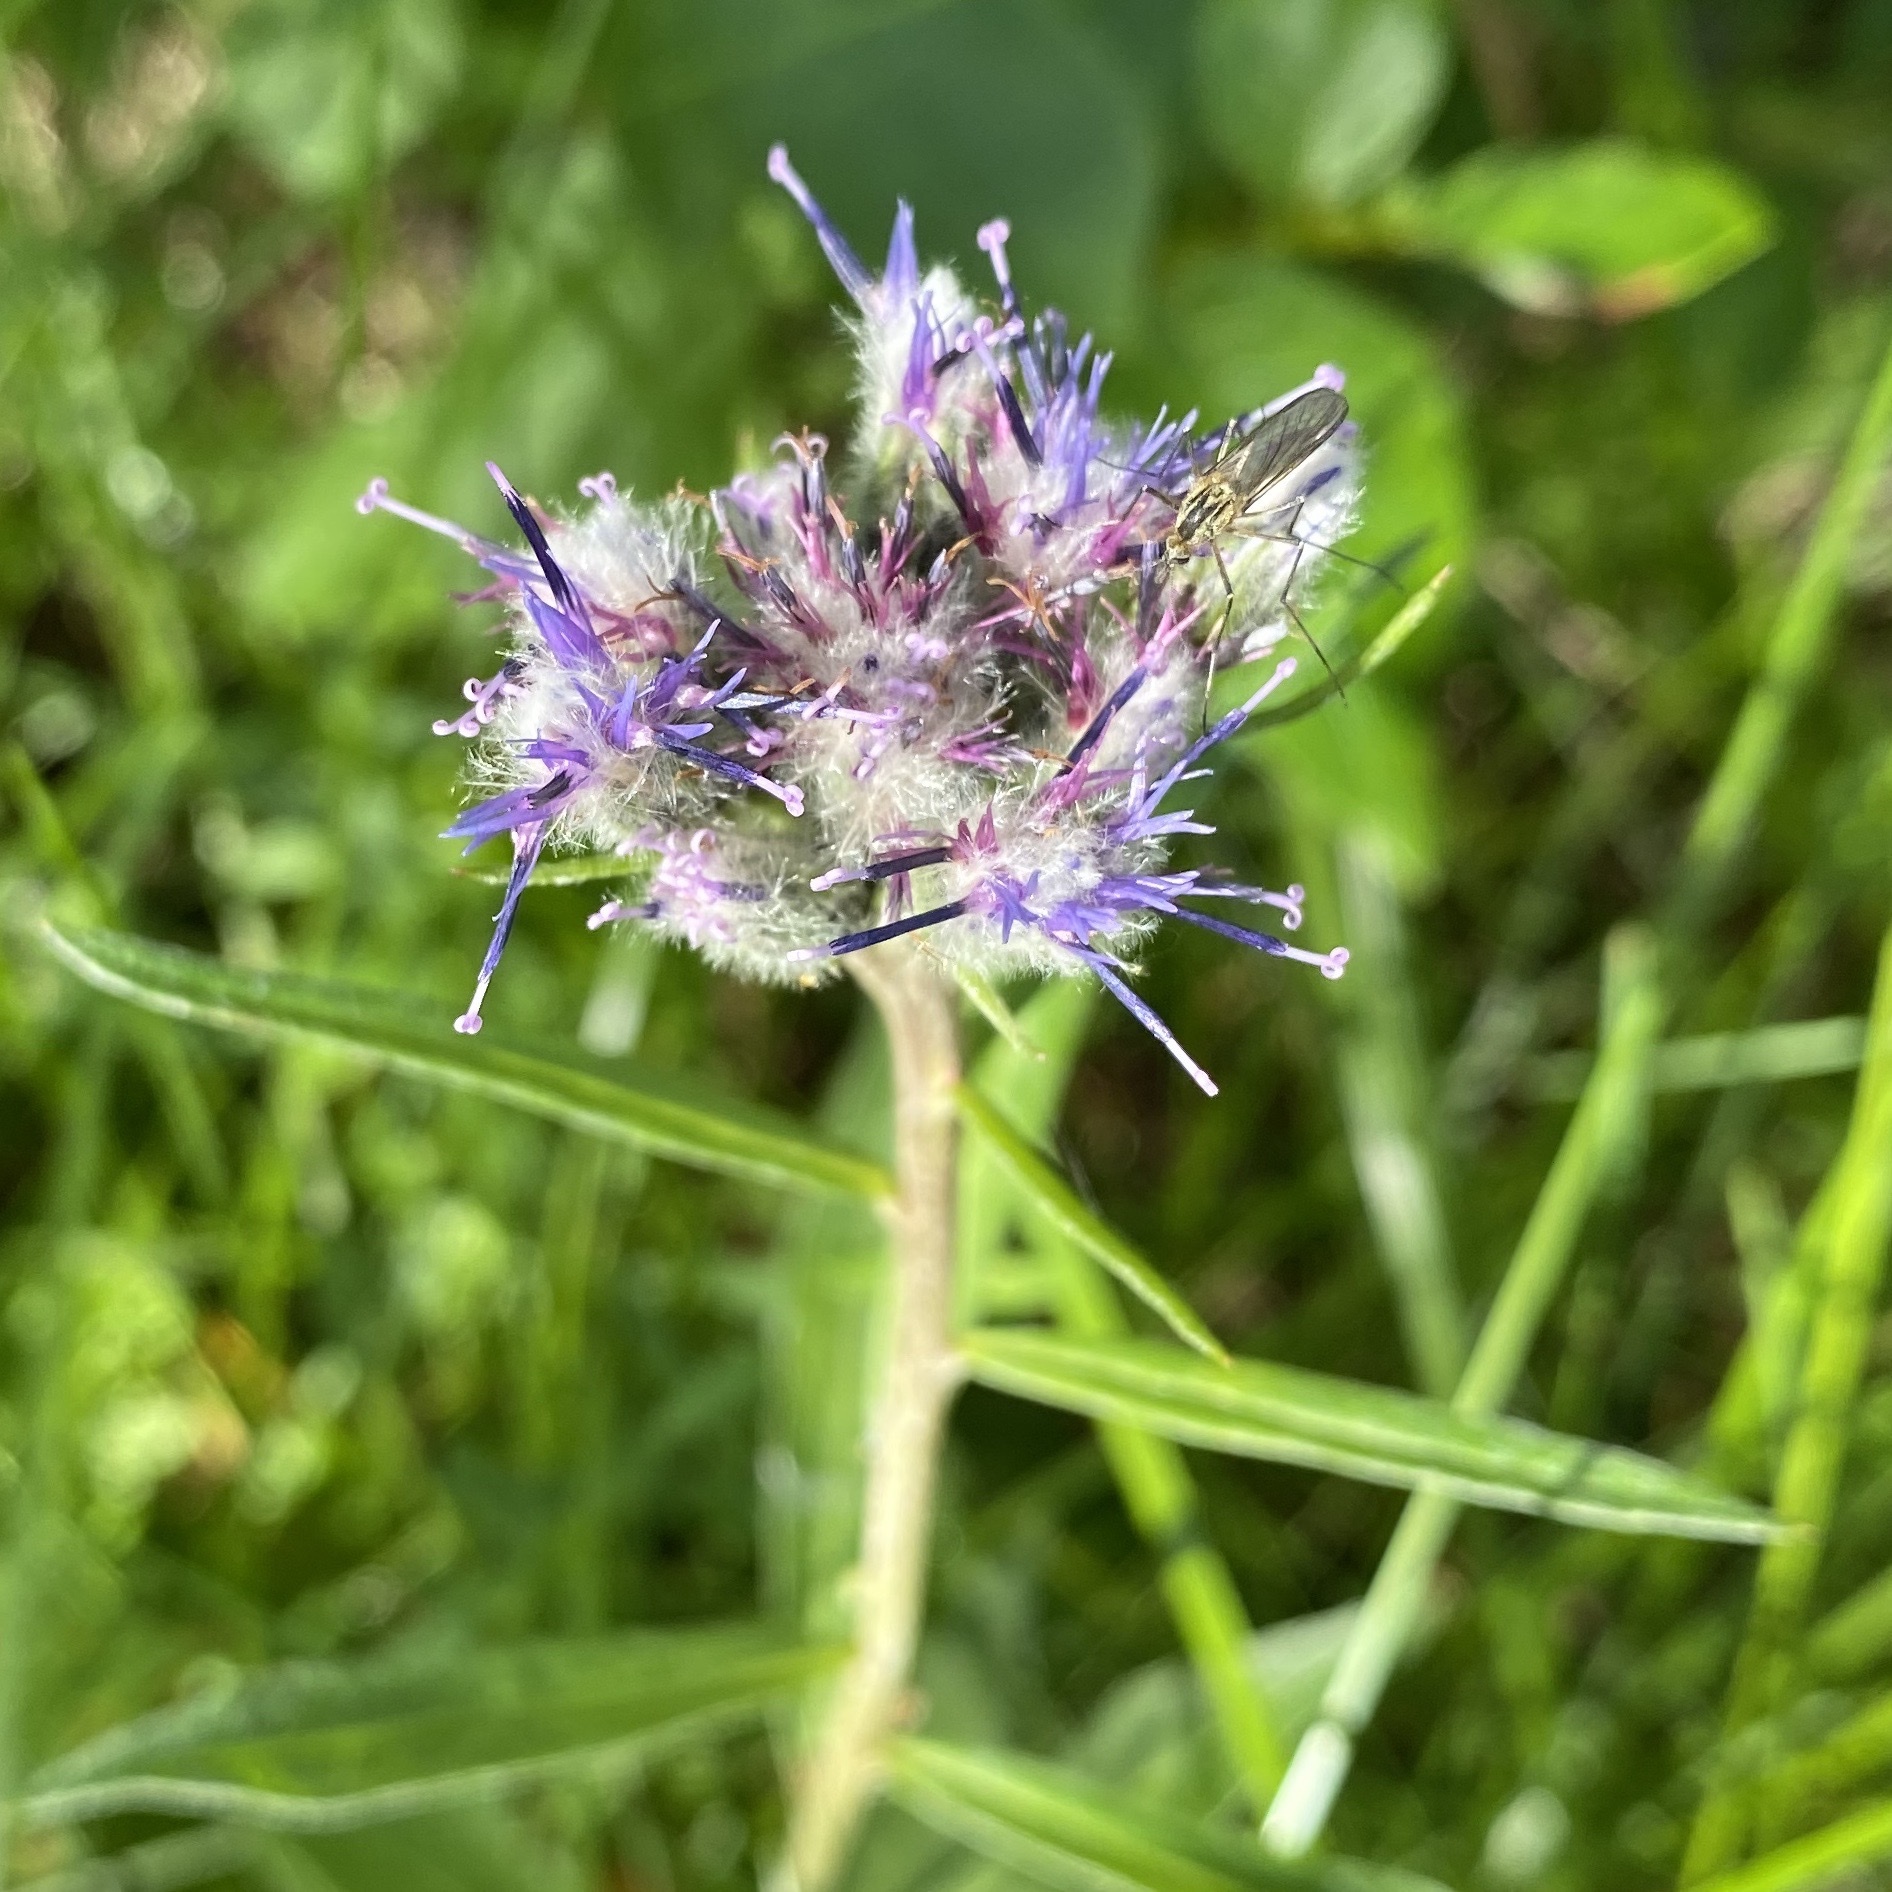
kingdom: Plantae
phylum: Tracheophyta
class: Magnoliopsida
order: Asterales
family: Asteraceae
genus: Saussurea
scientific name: Saussurea alpina
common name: Alpine saw-wort
